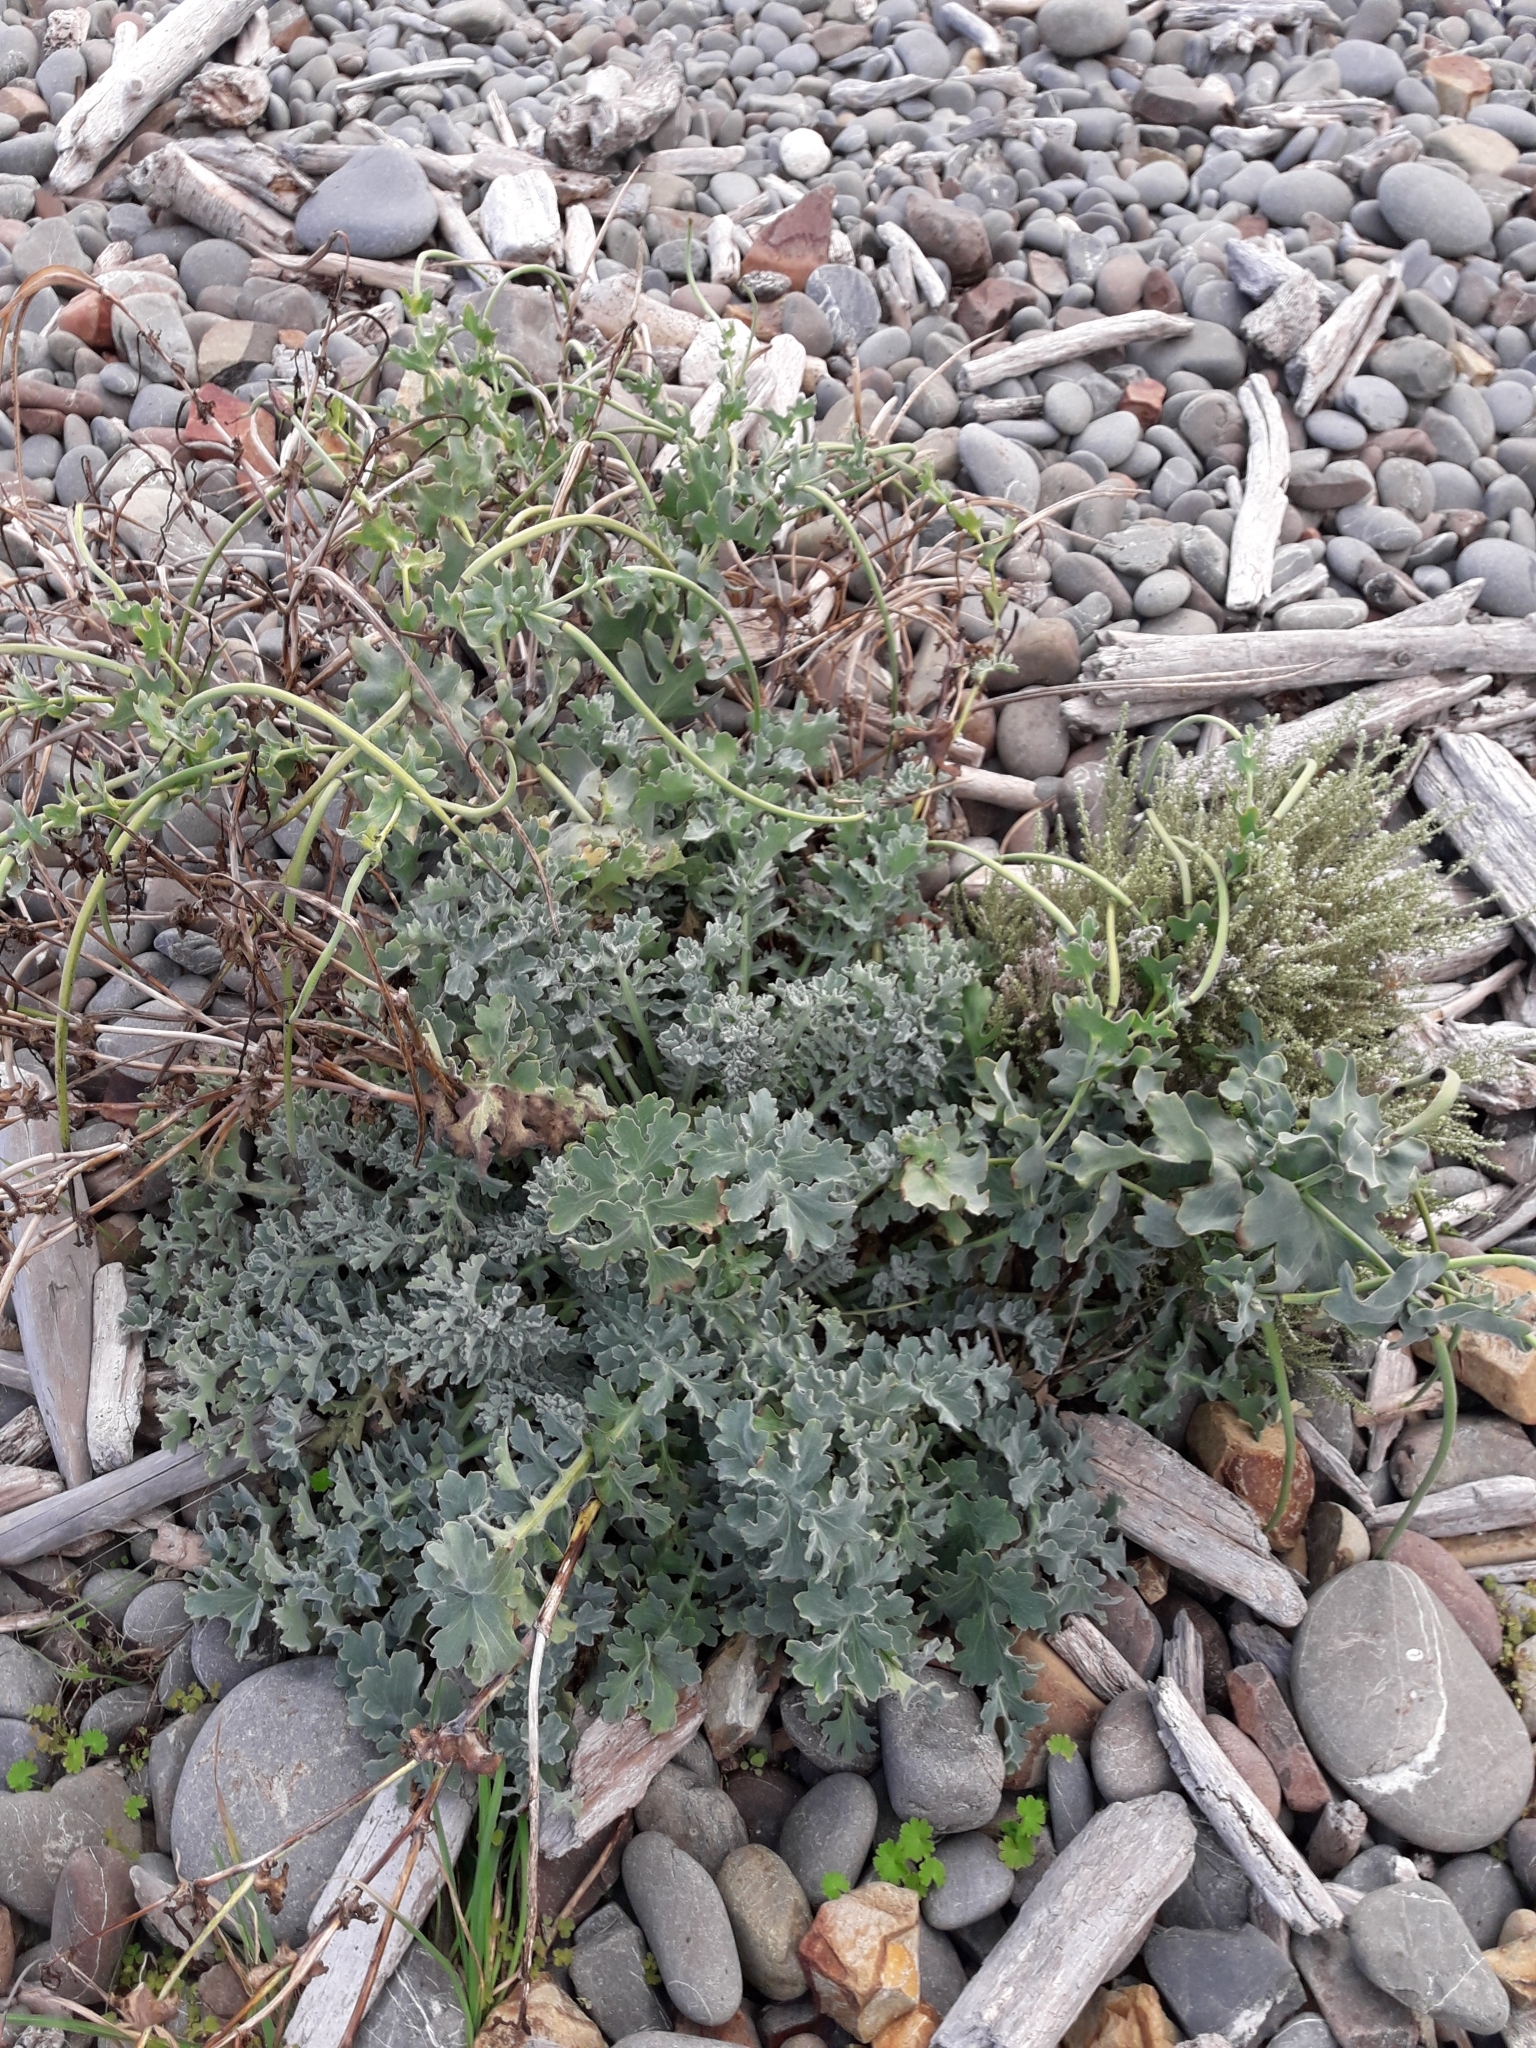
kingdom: Plantae
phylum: Tracheophyta
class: Magnoliopsida
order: Ranunculales
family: Papaveraceae
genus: Glaucium
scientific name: Glaucium flavum
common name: Yellow horned-poppy
